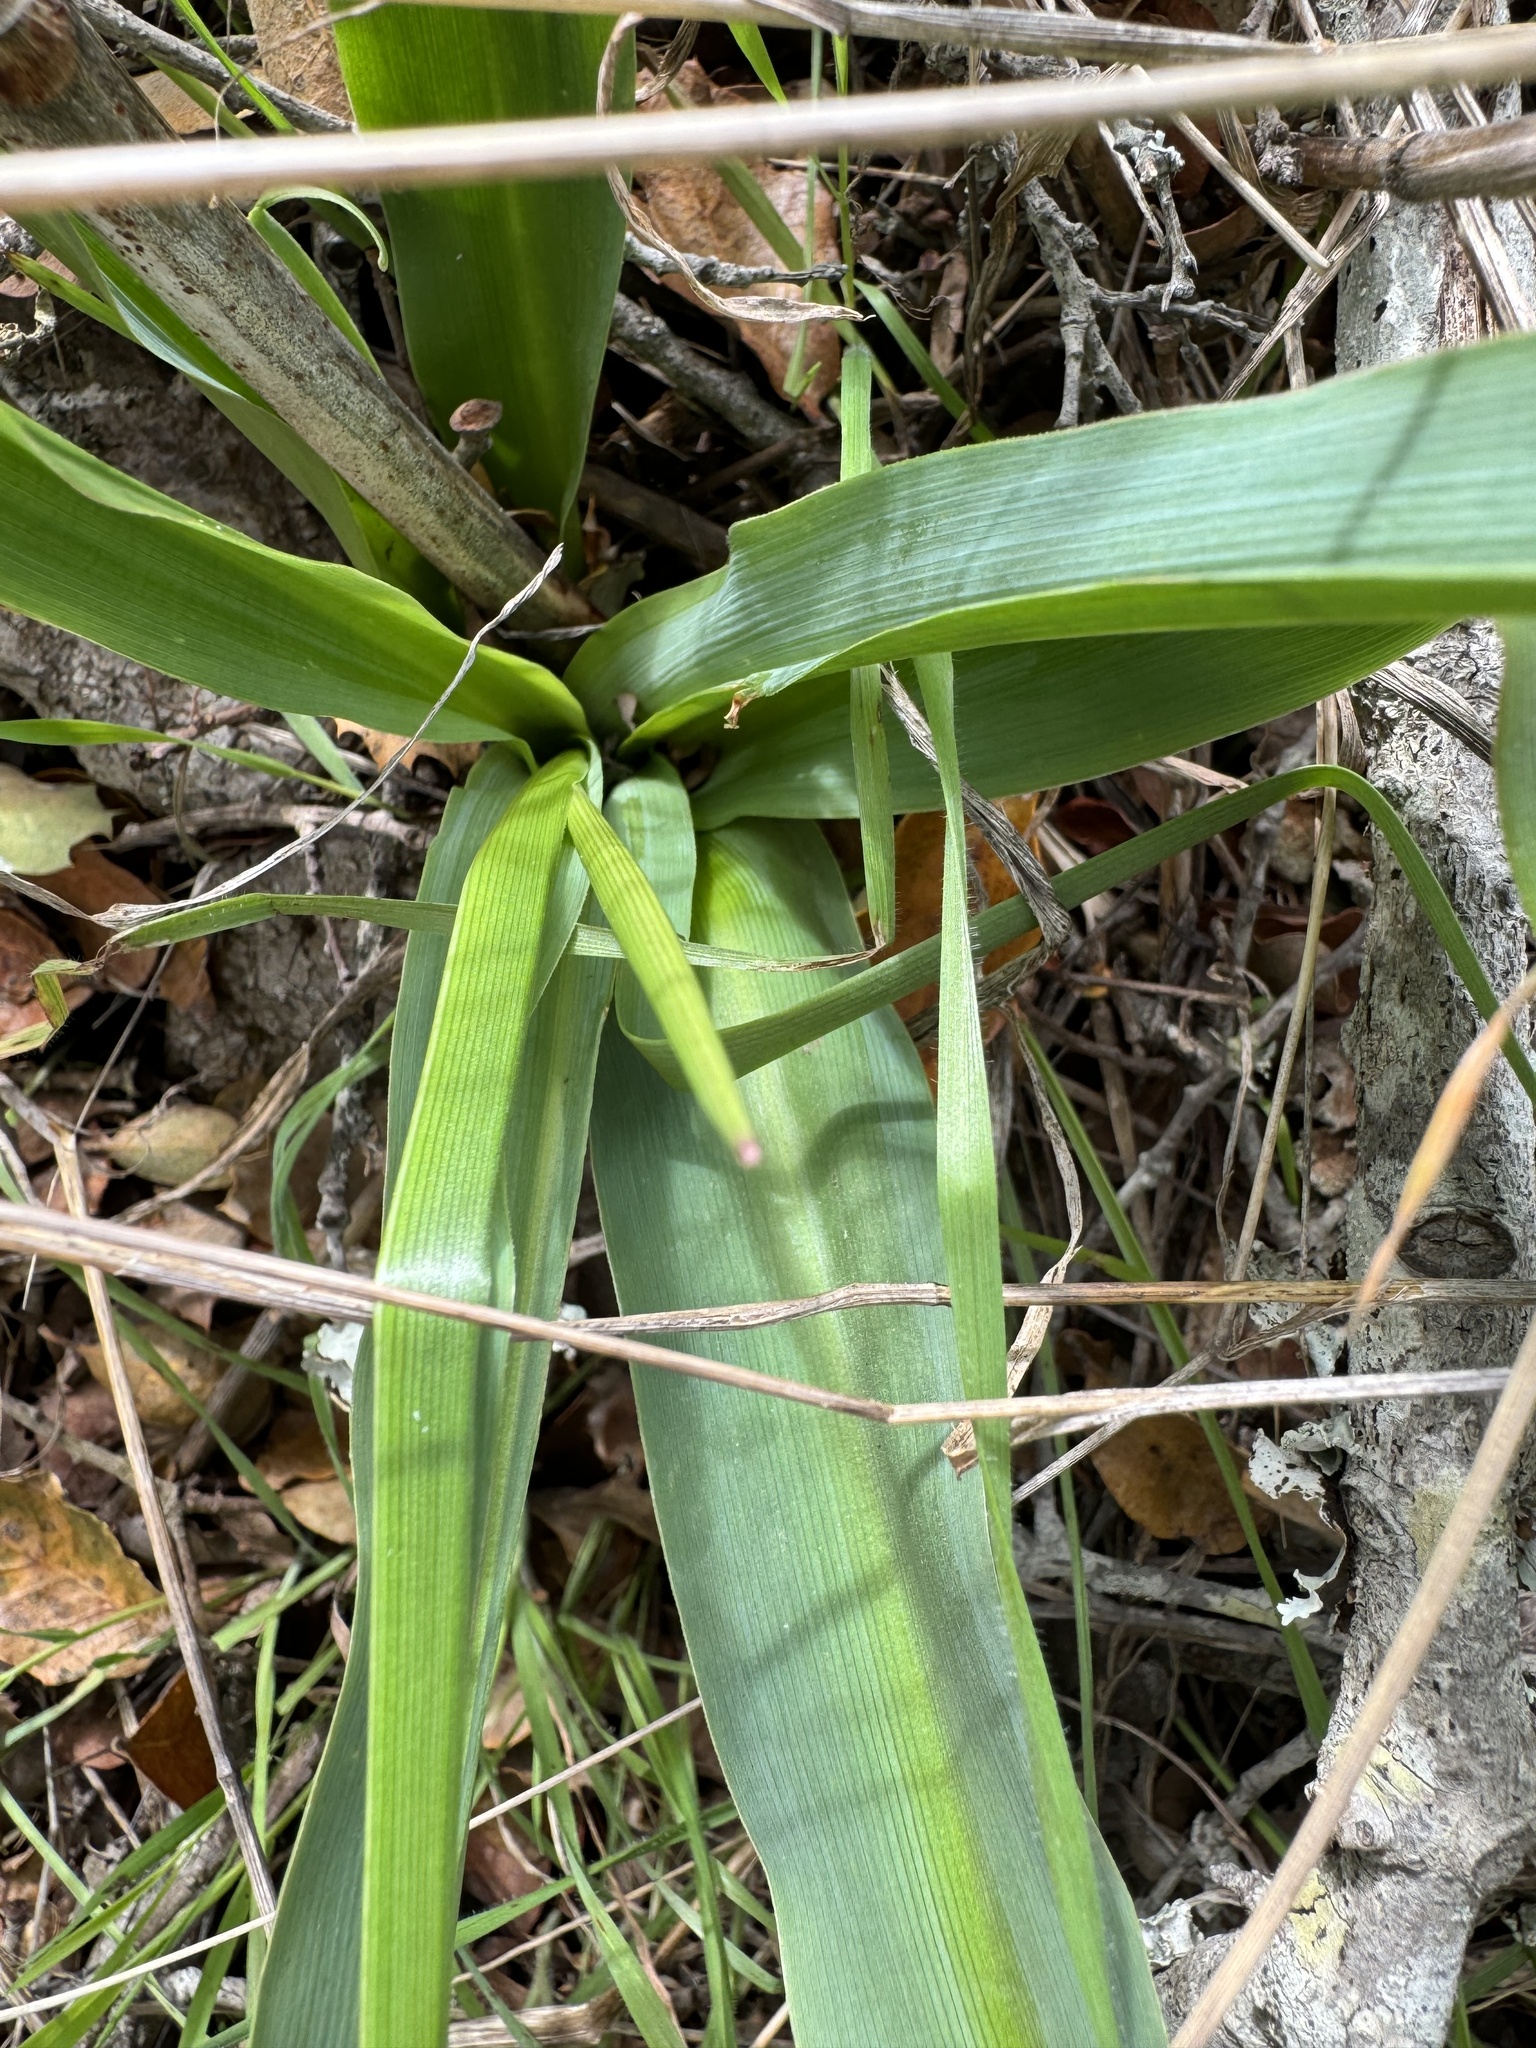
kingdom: Plantae
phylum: Tracheophyta
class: Liliopsida
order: Asparagales
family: Asparagaceae
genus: Chlorogalum
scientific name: Chlorogalum pomeridianum
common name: Amole
